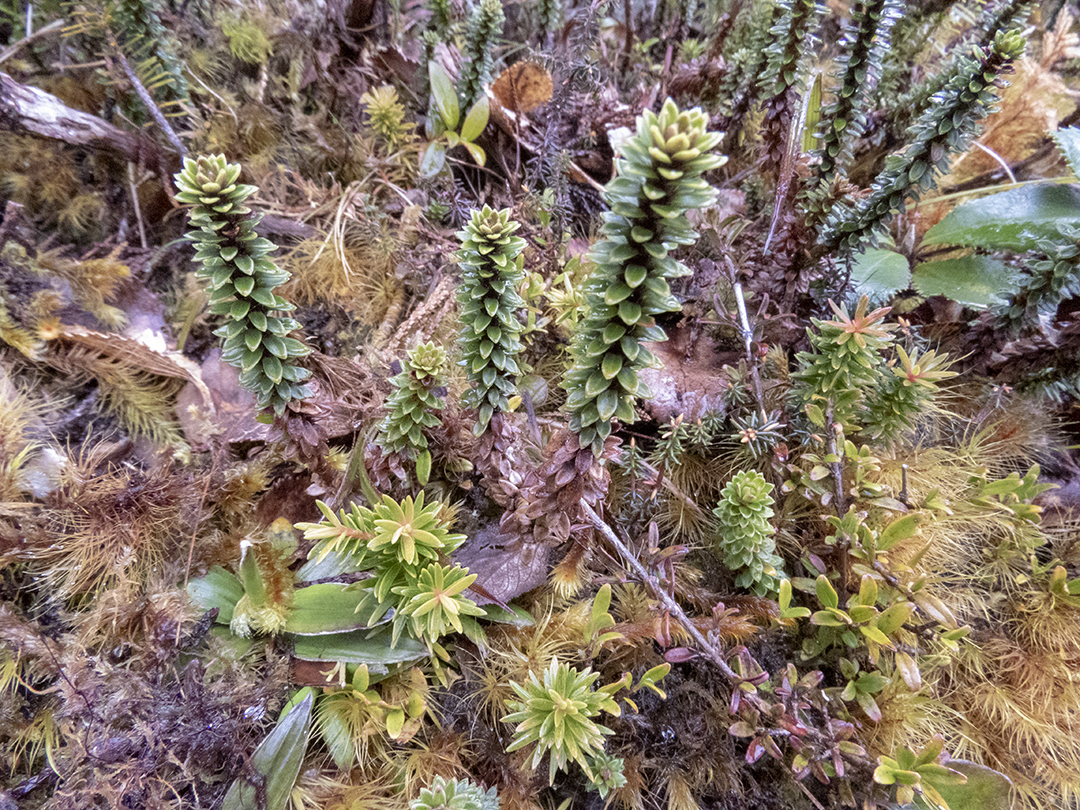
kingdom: Plantae
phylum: Tracheophyta
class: Magnoliopsida
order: Asterales
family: Stylidiaceae
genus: Forstera
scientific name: Forstera mackayi
